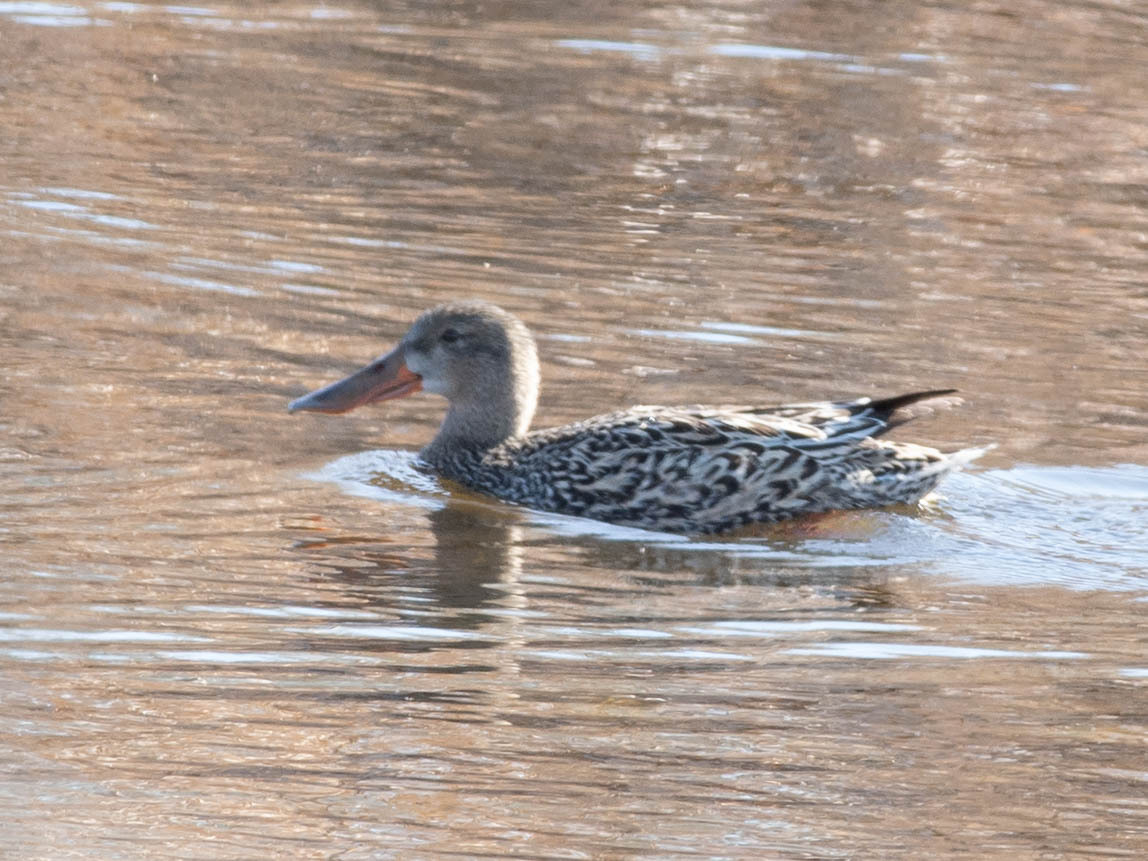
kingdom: Animalia
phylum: Chordata
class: Aves
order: Anseriformes
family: Anatidae
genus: Spatula
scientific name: Spatula clypeata
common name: Northern shoveler
